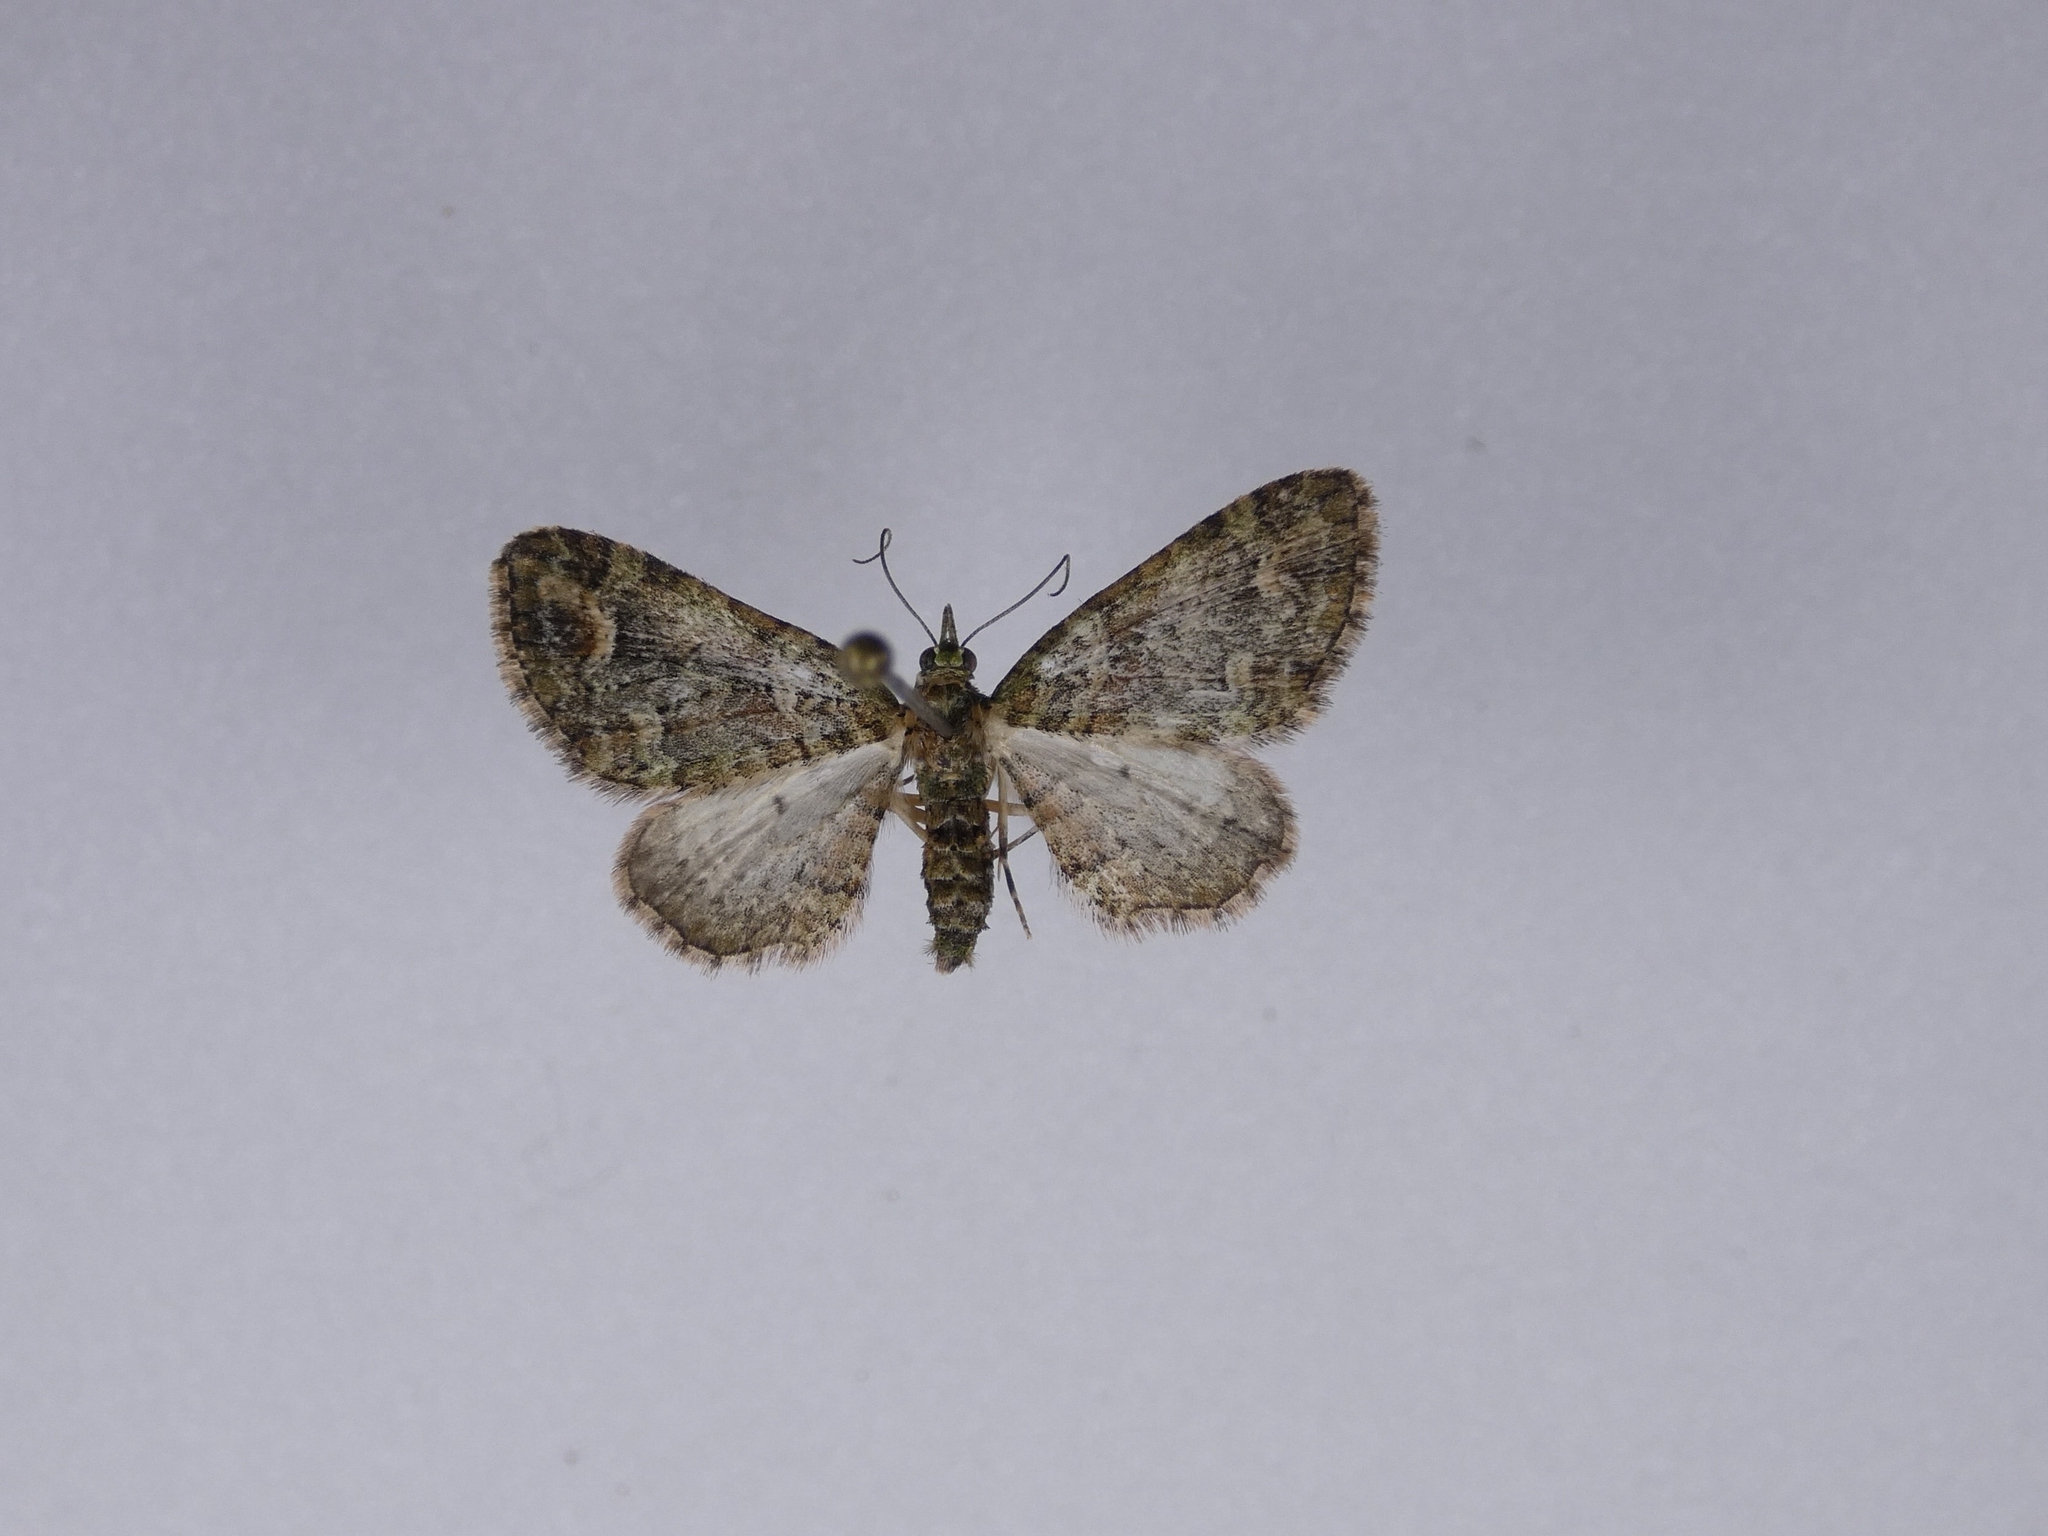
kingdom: Animalia
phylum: Arthropoda
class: Insecta
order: Lepidoptera
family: Geometridae
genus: Idaea
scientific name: Idaea mutanda
